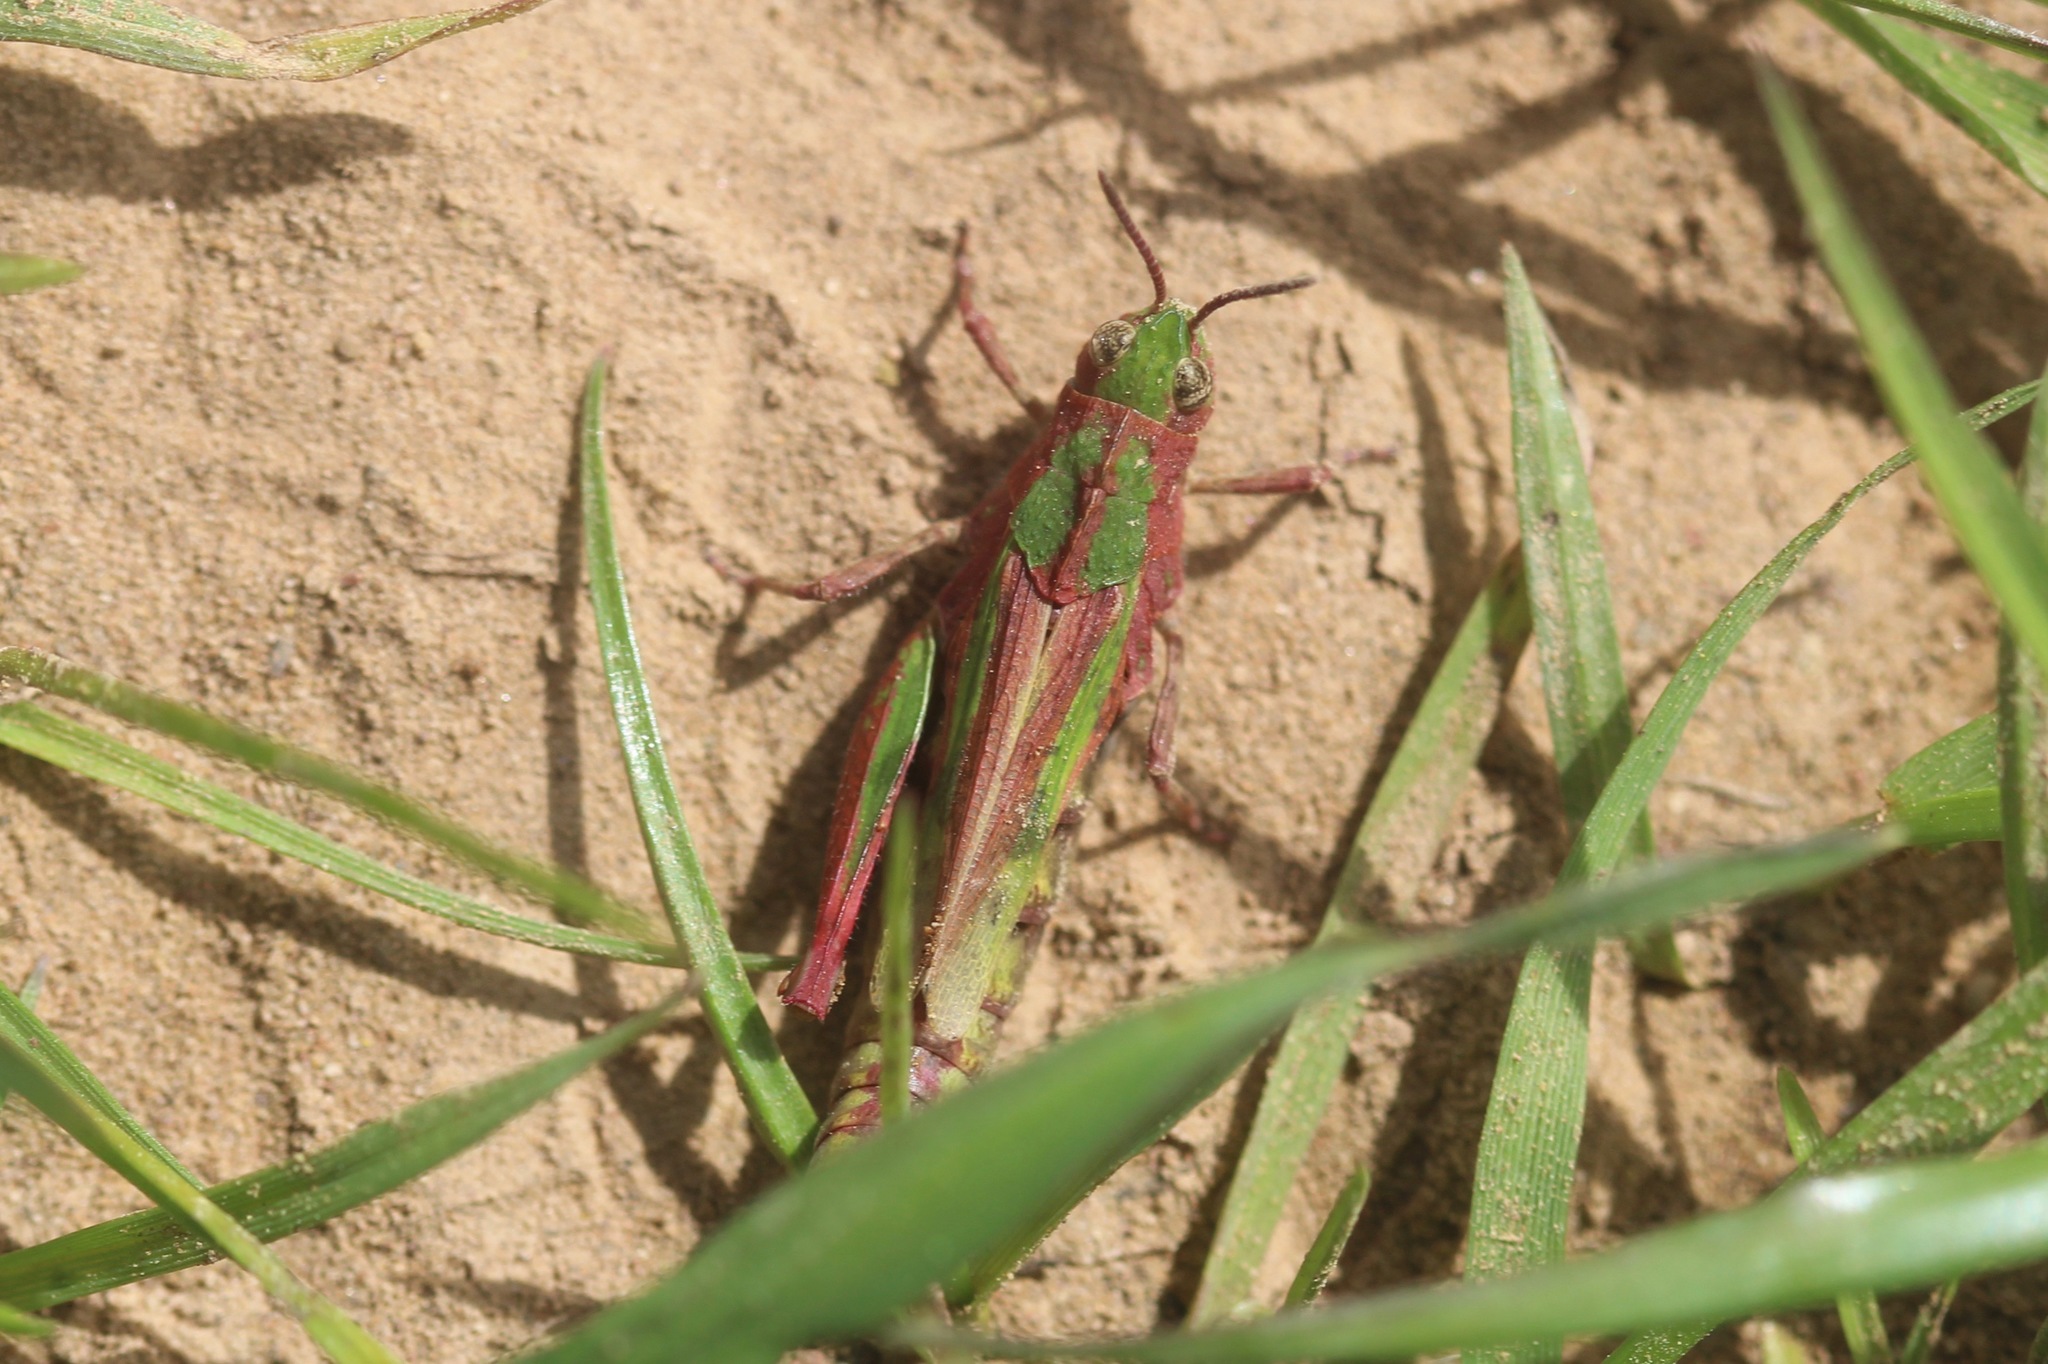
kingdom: Animalia
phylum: Arthropoda
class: Insecta
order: Orthoptera
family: Acrididae
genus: Chimarocephala
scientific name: Chimarocephala pacifica
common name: Painted meadow grasshopper
